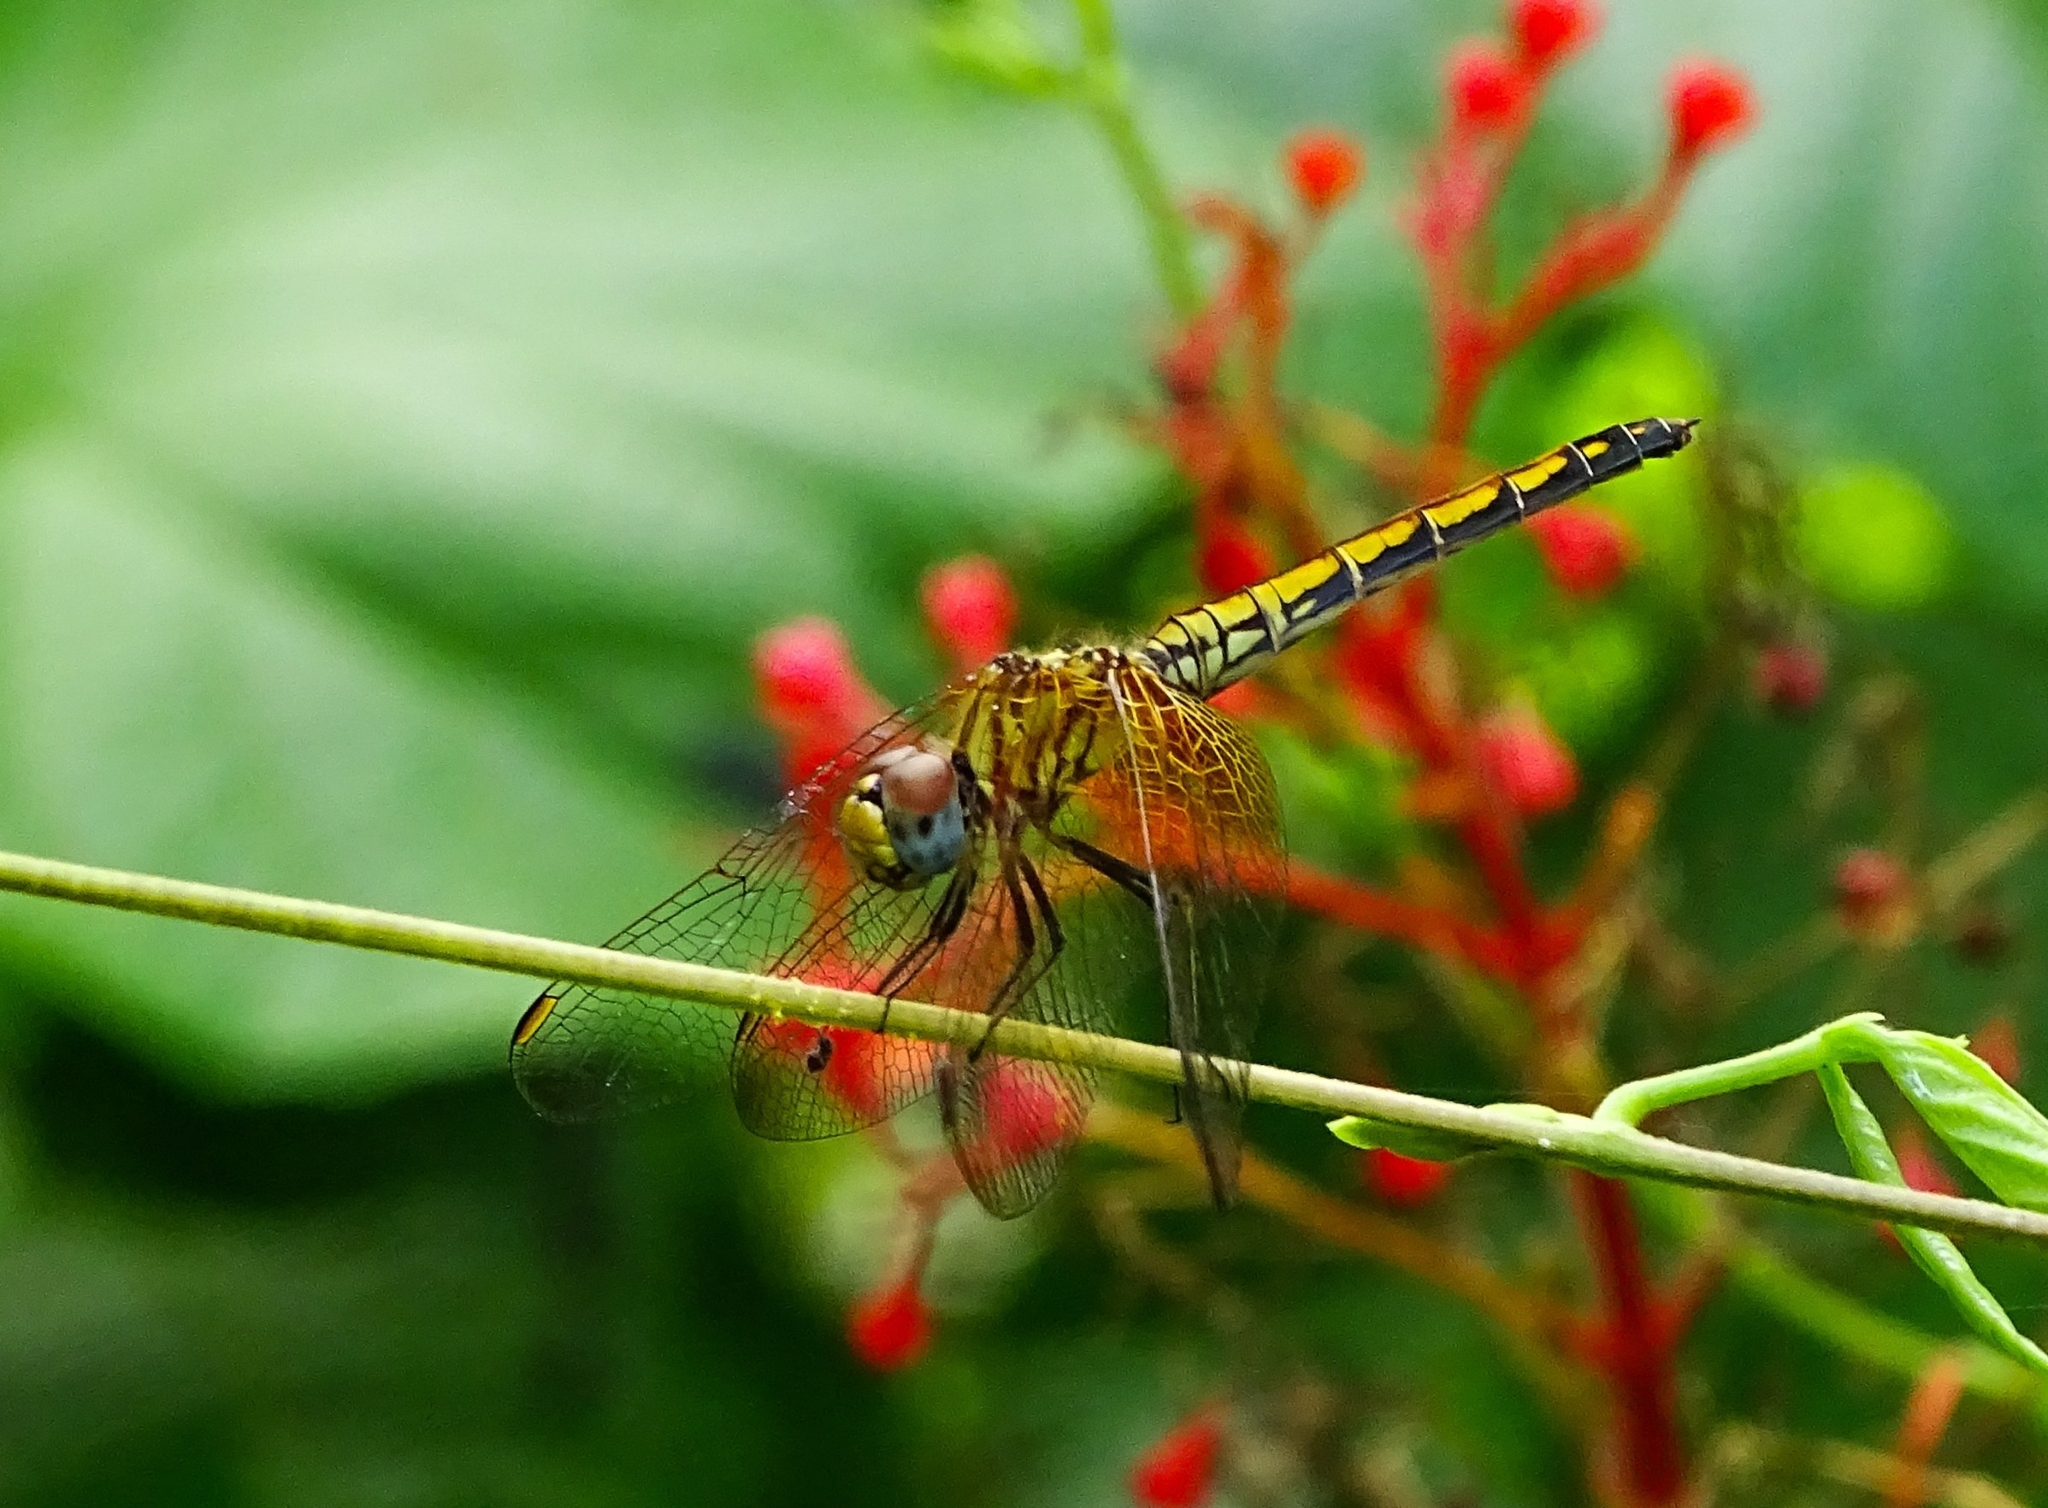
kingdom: Animalia
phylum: Arthropoda
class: Insecta
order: Odonata
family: Libellulidae
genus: Trithemis
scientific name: Trithemis aurora
